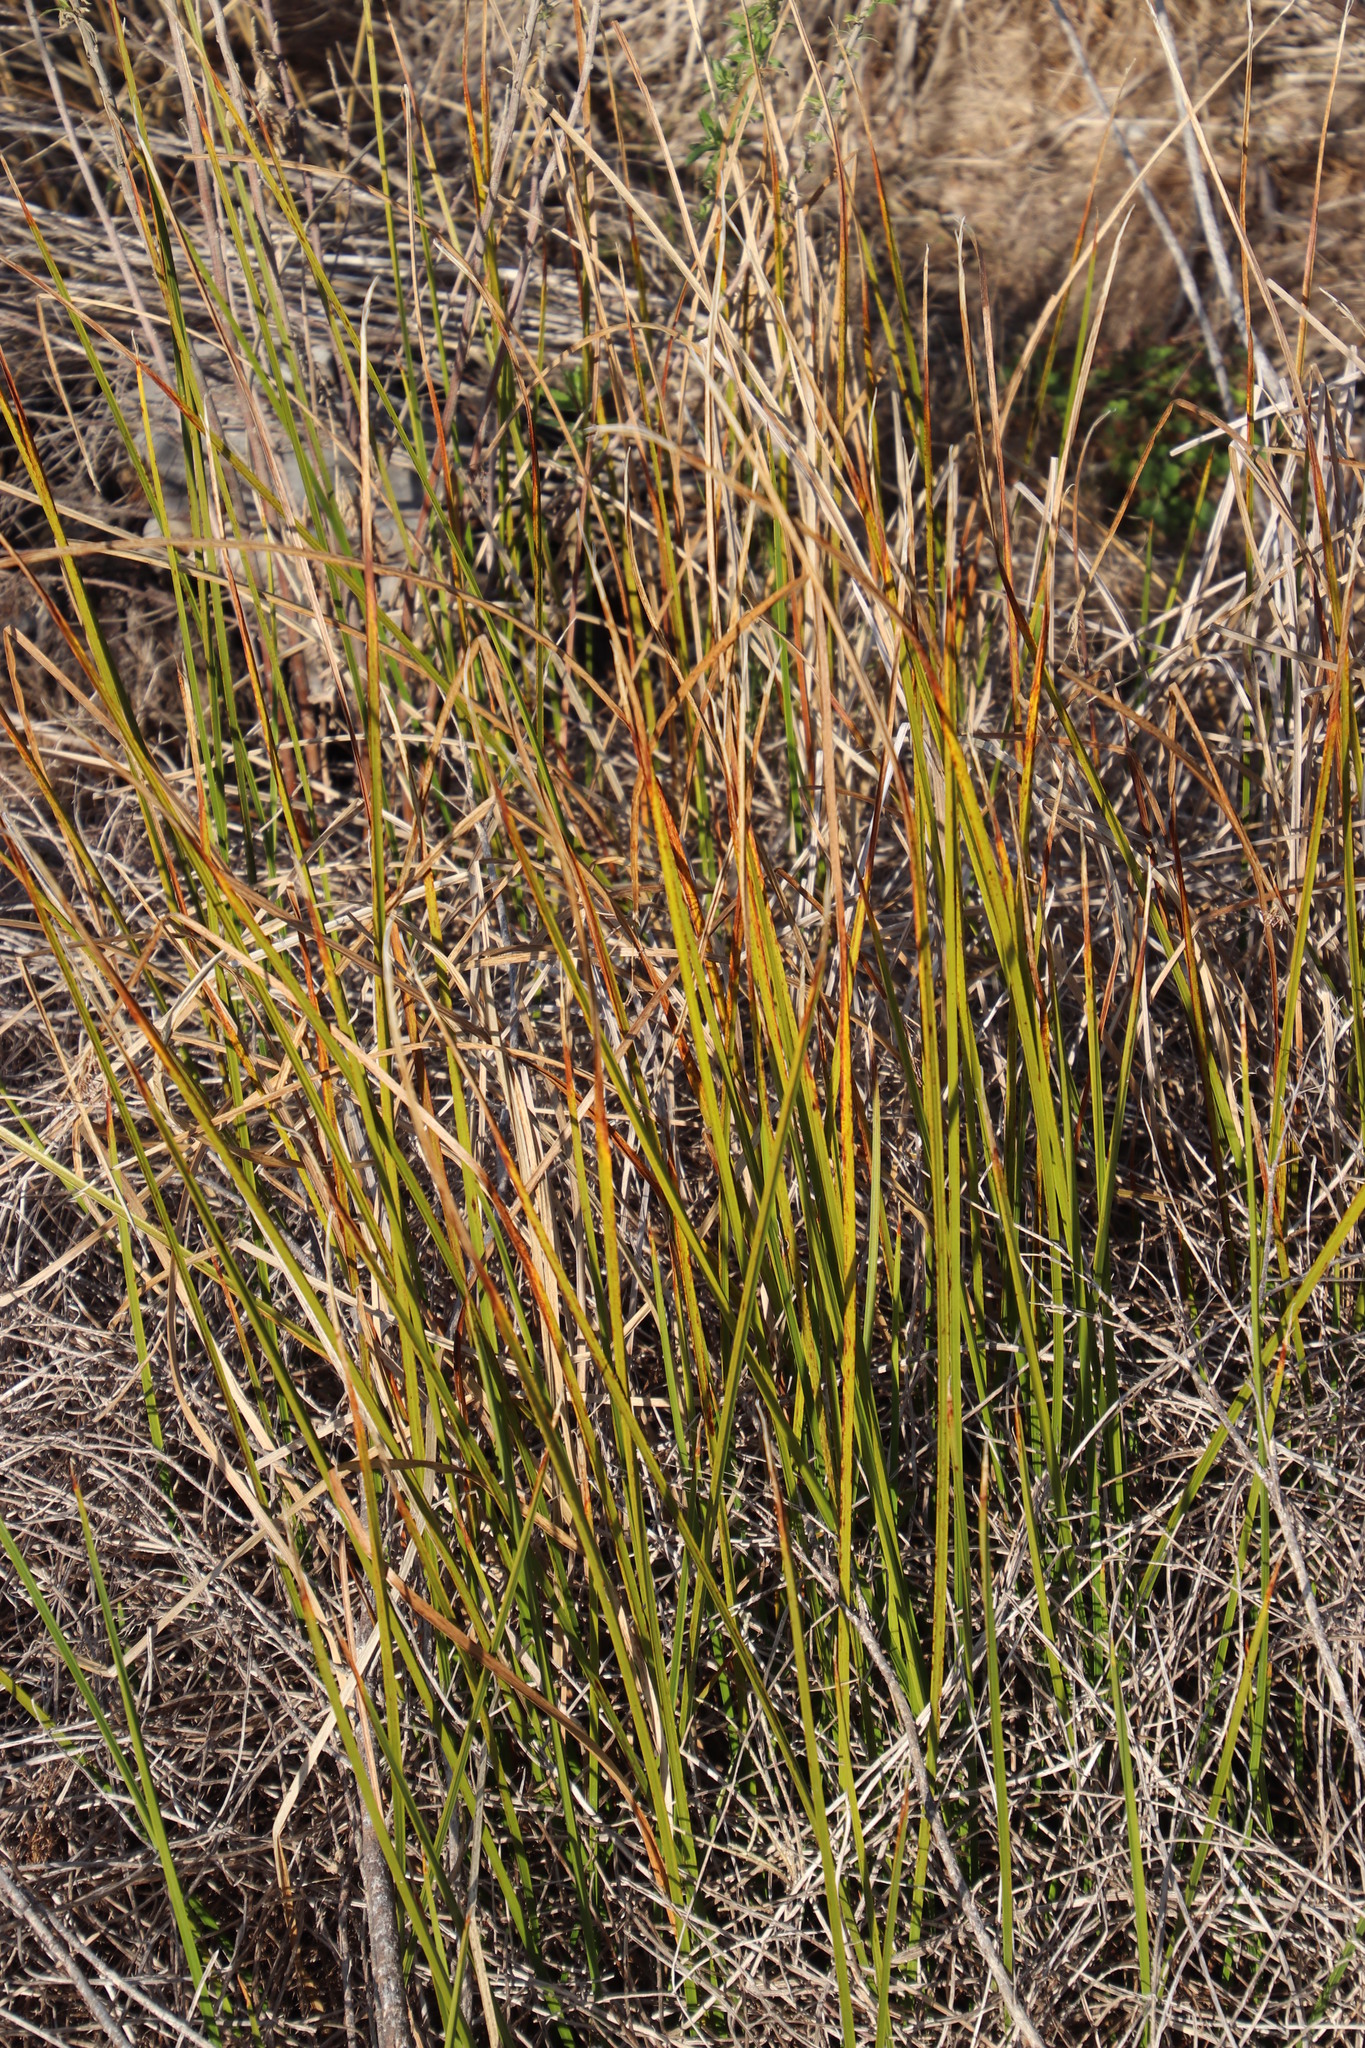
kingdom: Plantae
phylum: Tracheophyta
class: Liliopsida
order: Poales
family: Cyperaceae
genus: Cyperus
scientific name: Cyperus denudatus
